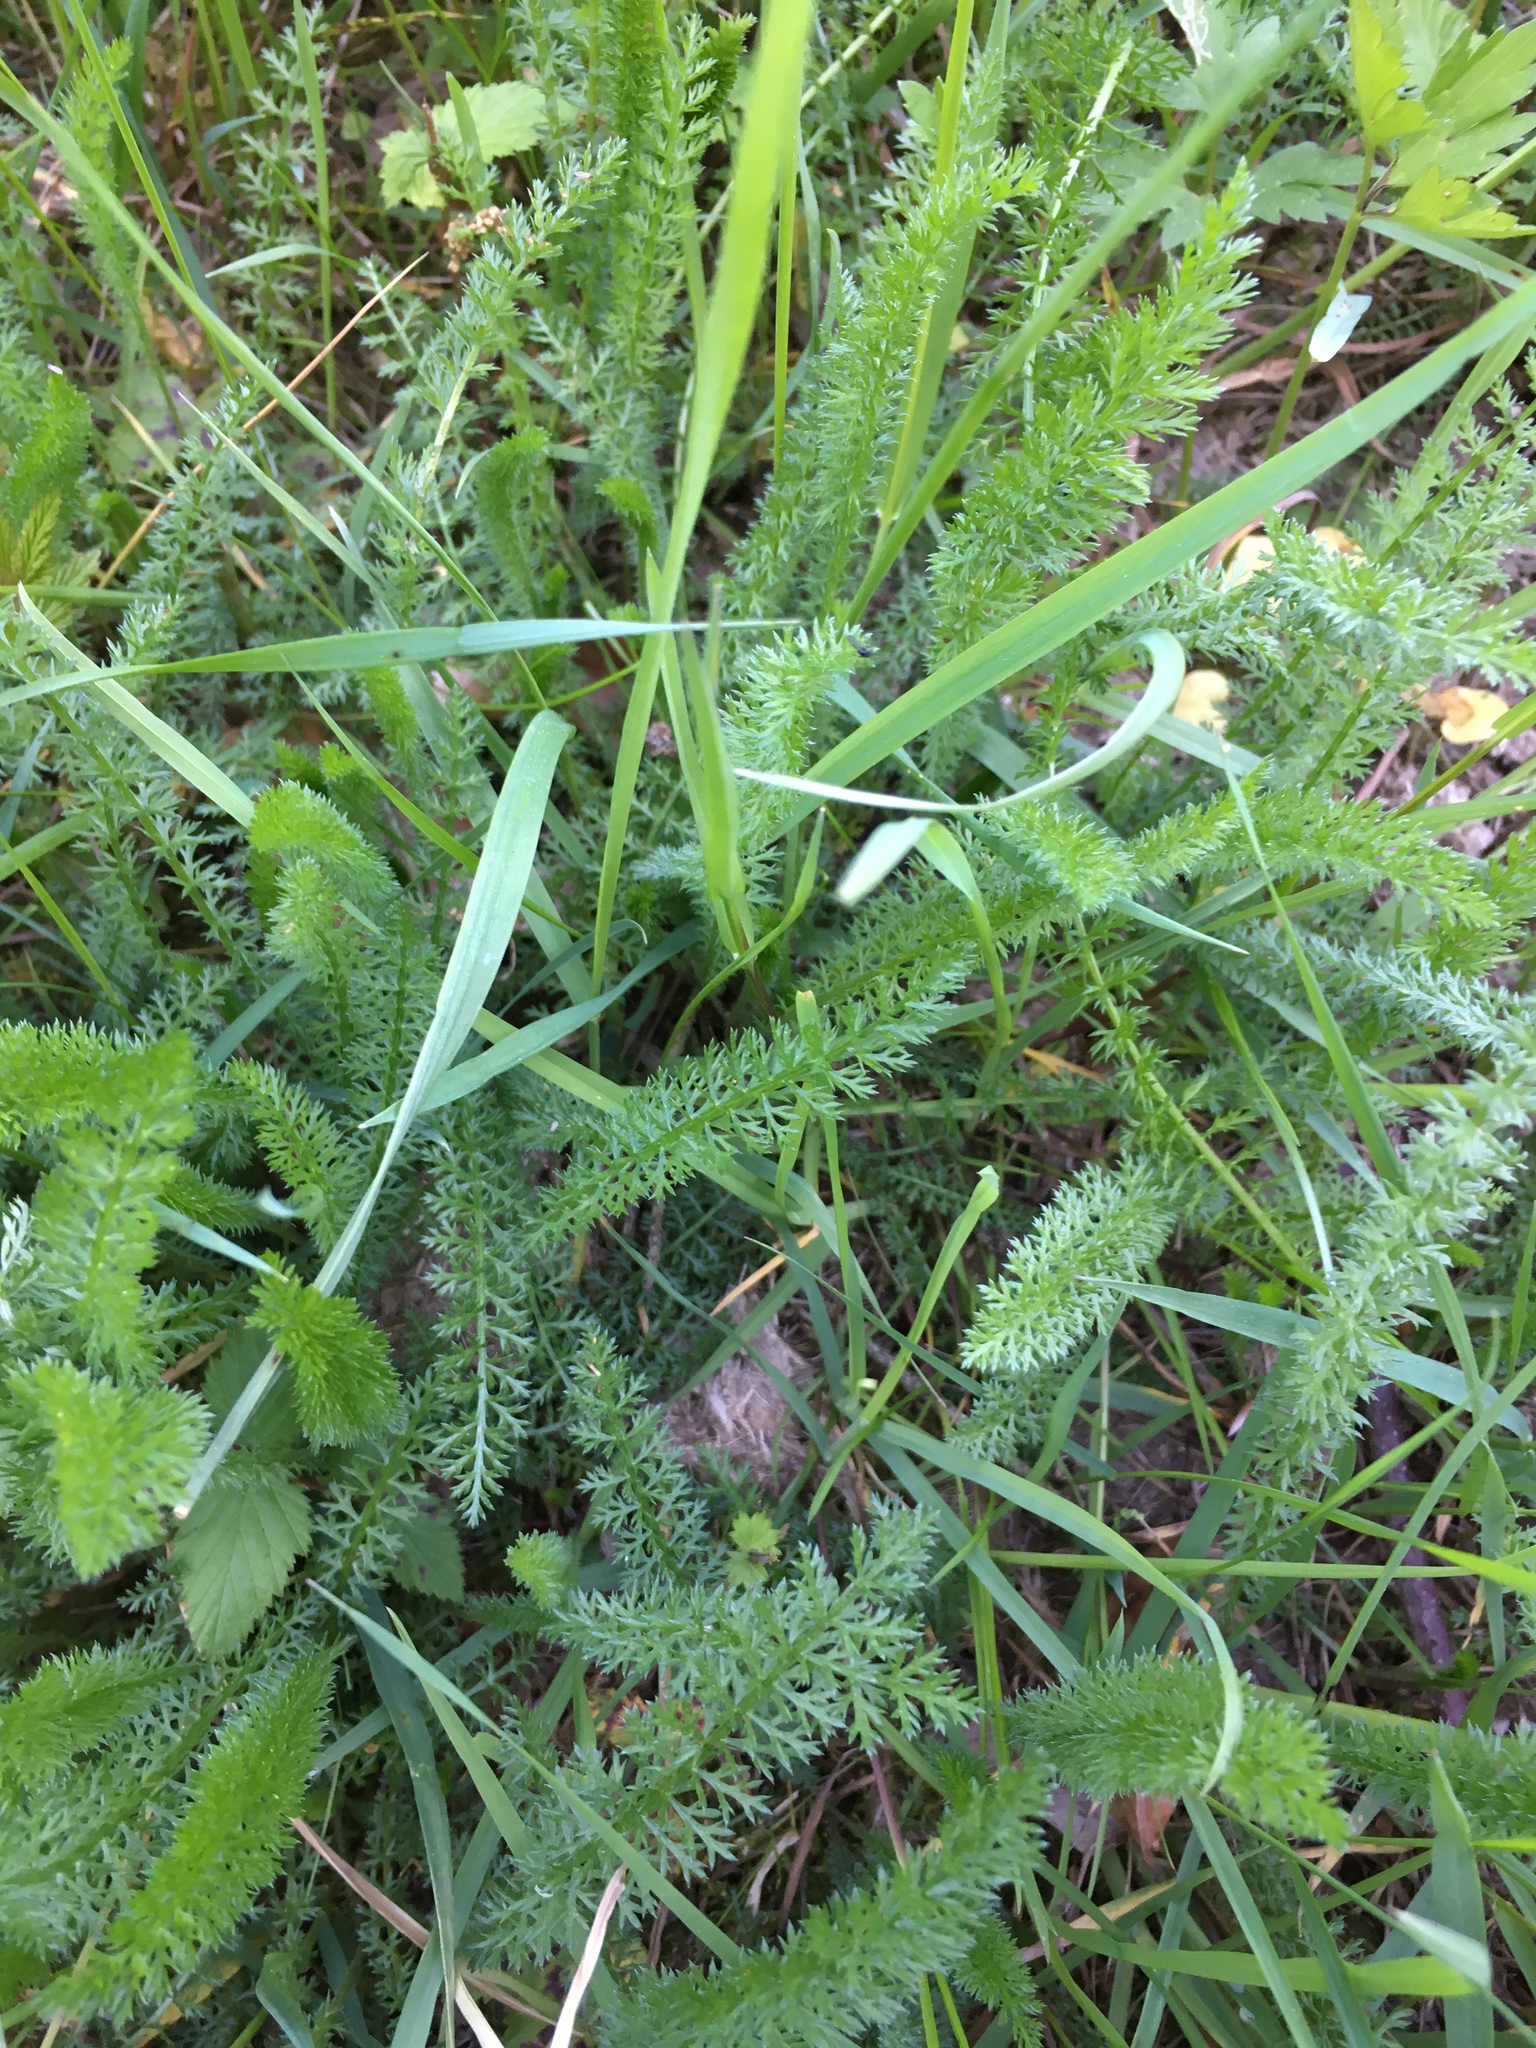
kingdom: Plantae
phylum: Tracheophyta
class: Magnoliopsida
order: Asterales
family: Asteraceae
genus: Achillea
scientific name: Achillea millefolium
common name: Yarrow
